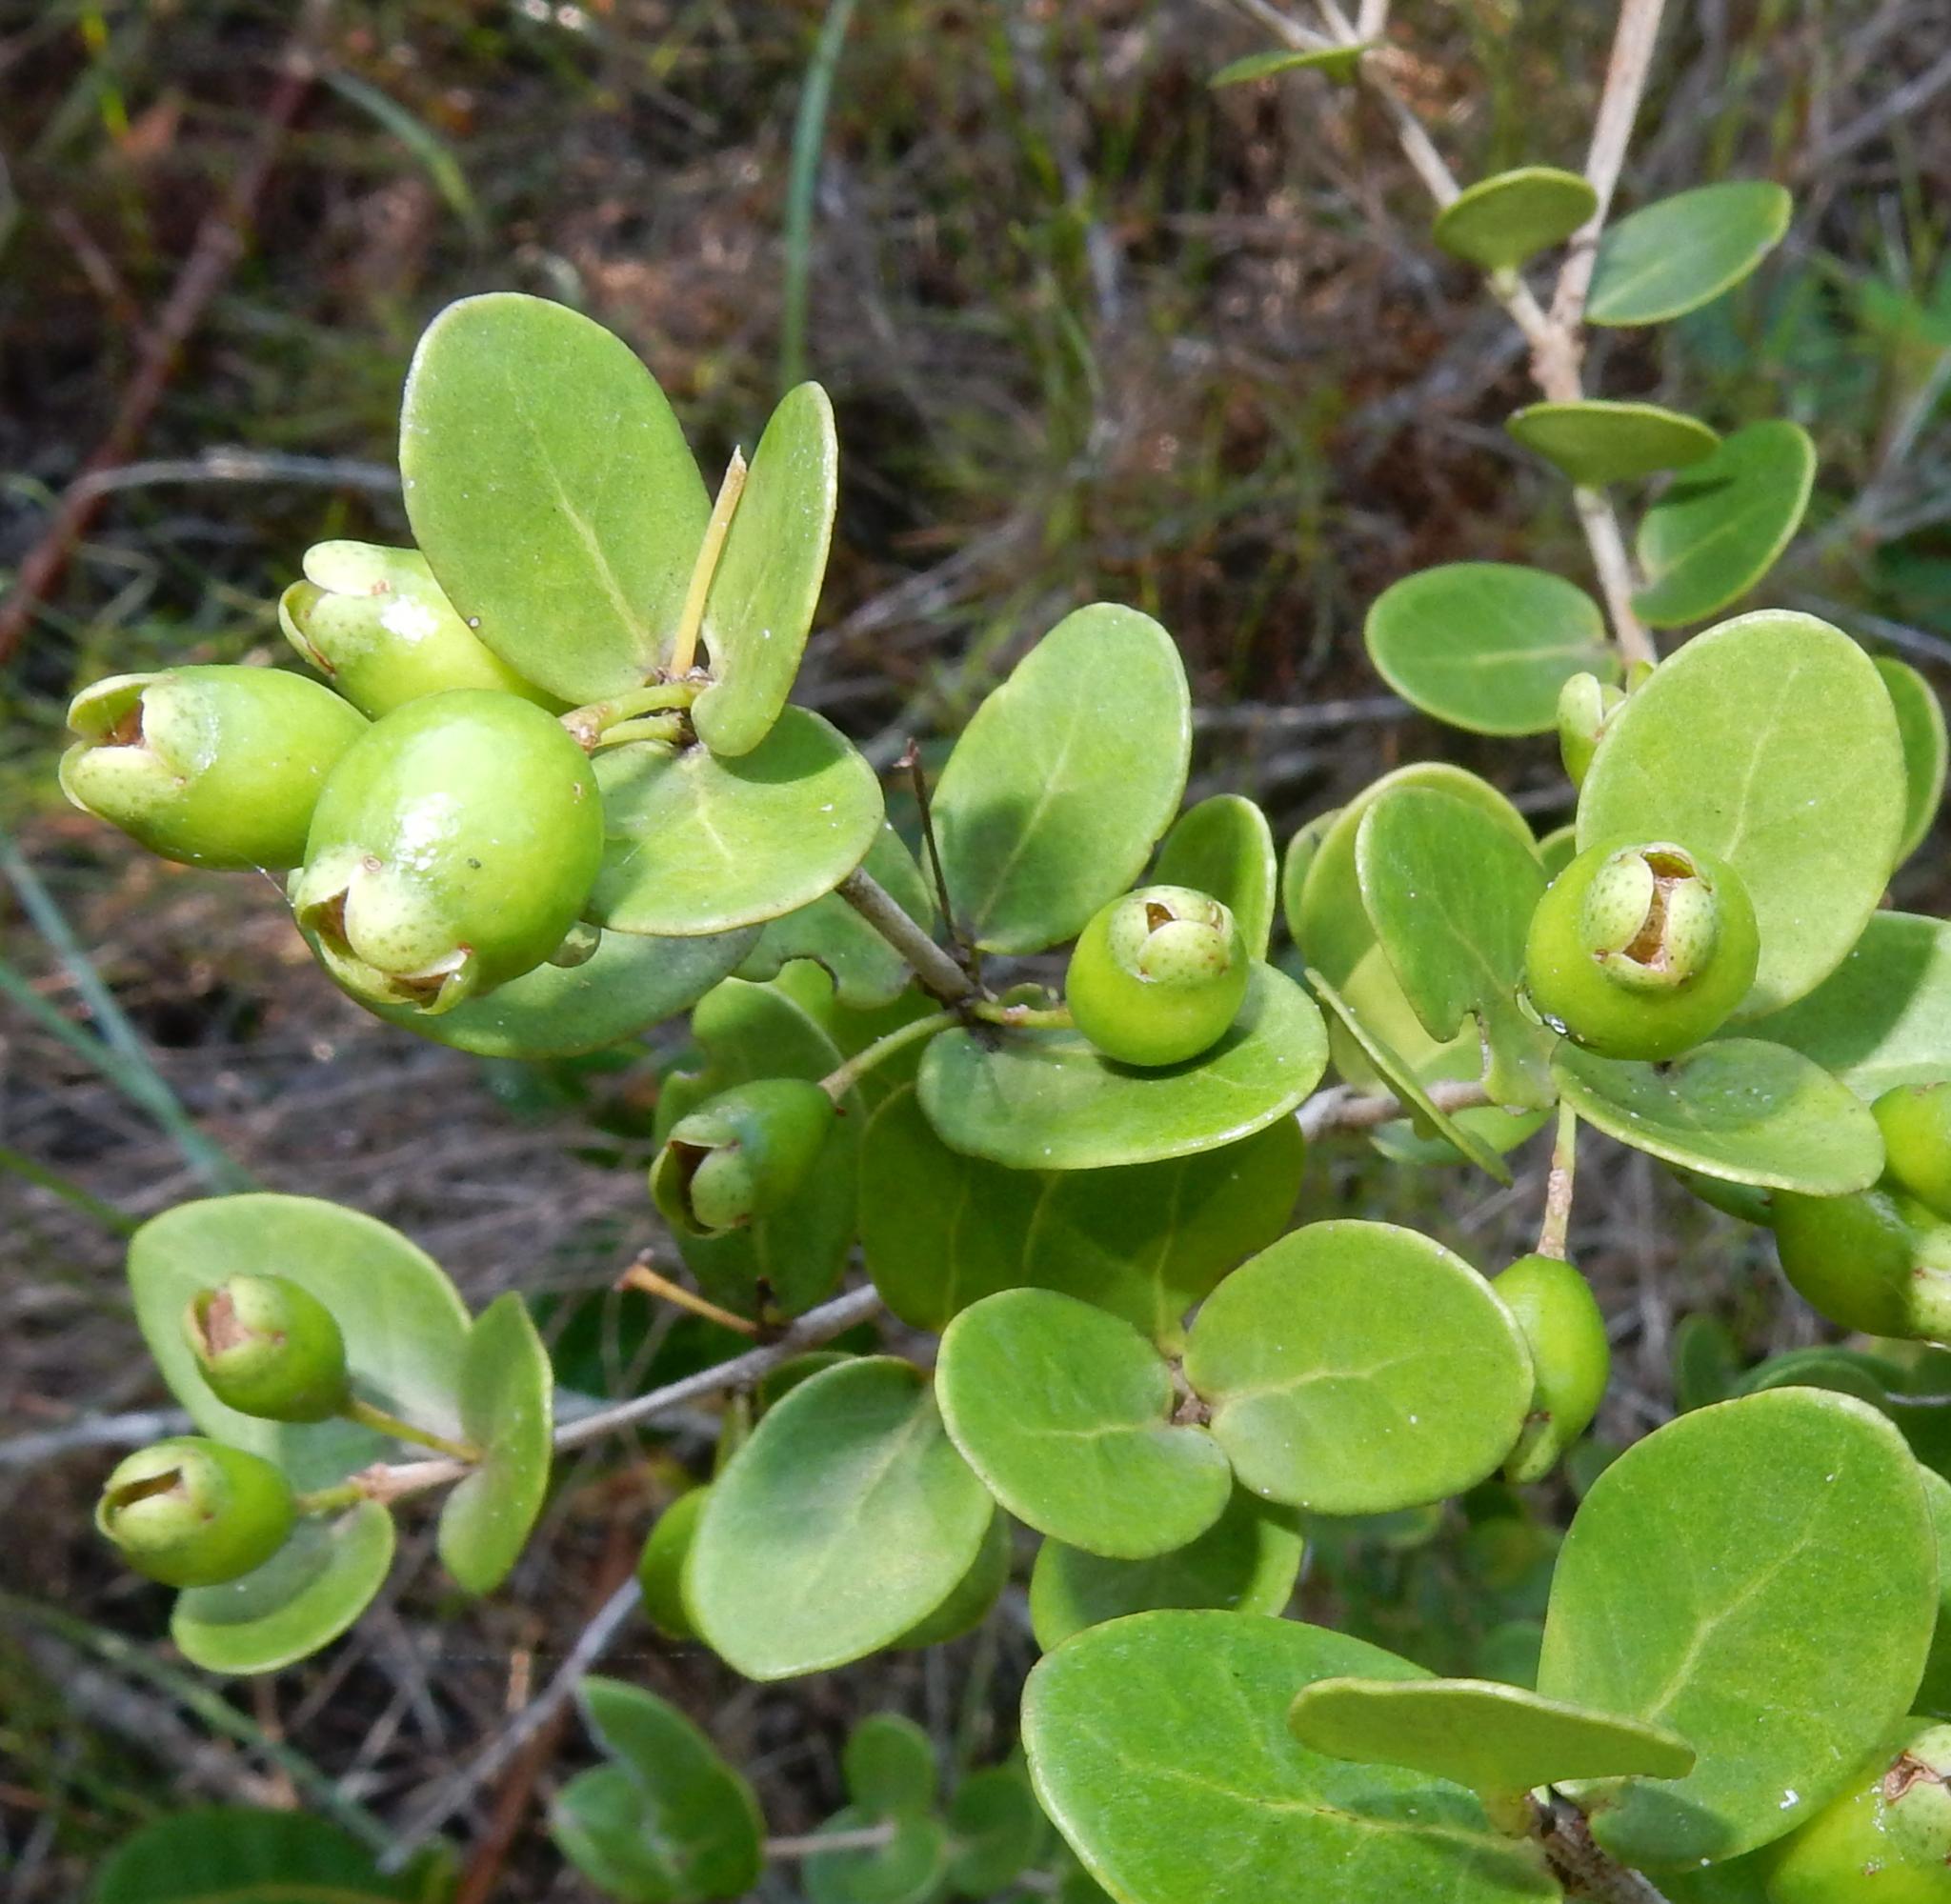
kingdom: Plantae
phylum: Tracheophyta
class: Magnoliopsida
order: Myrtales
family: Myrtaceae
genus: Eugenia
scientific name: Eugenia capensis
